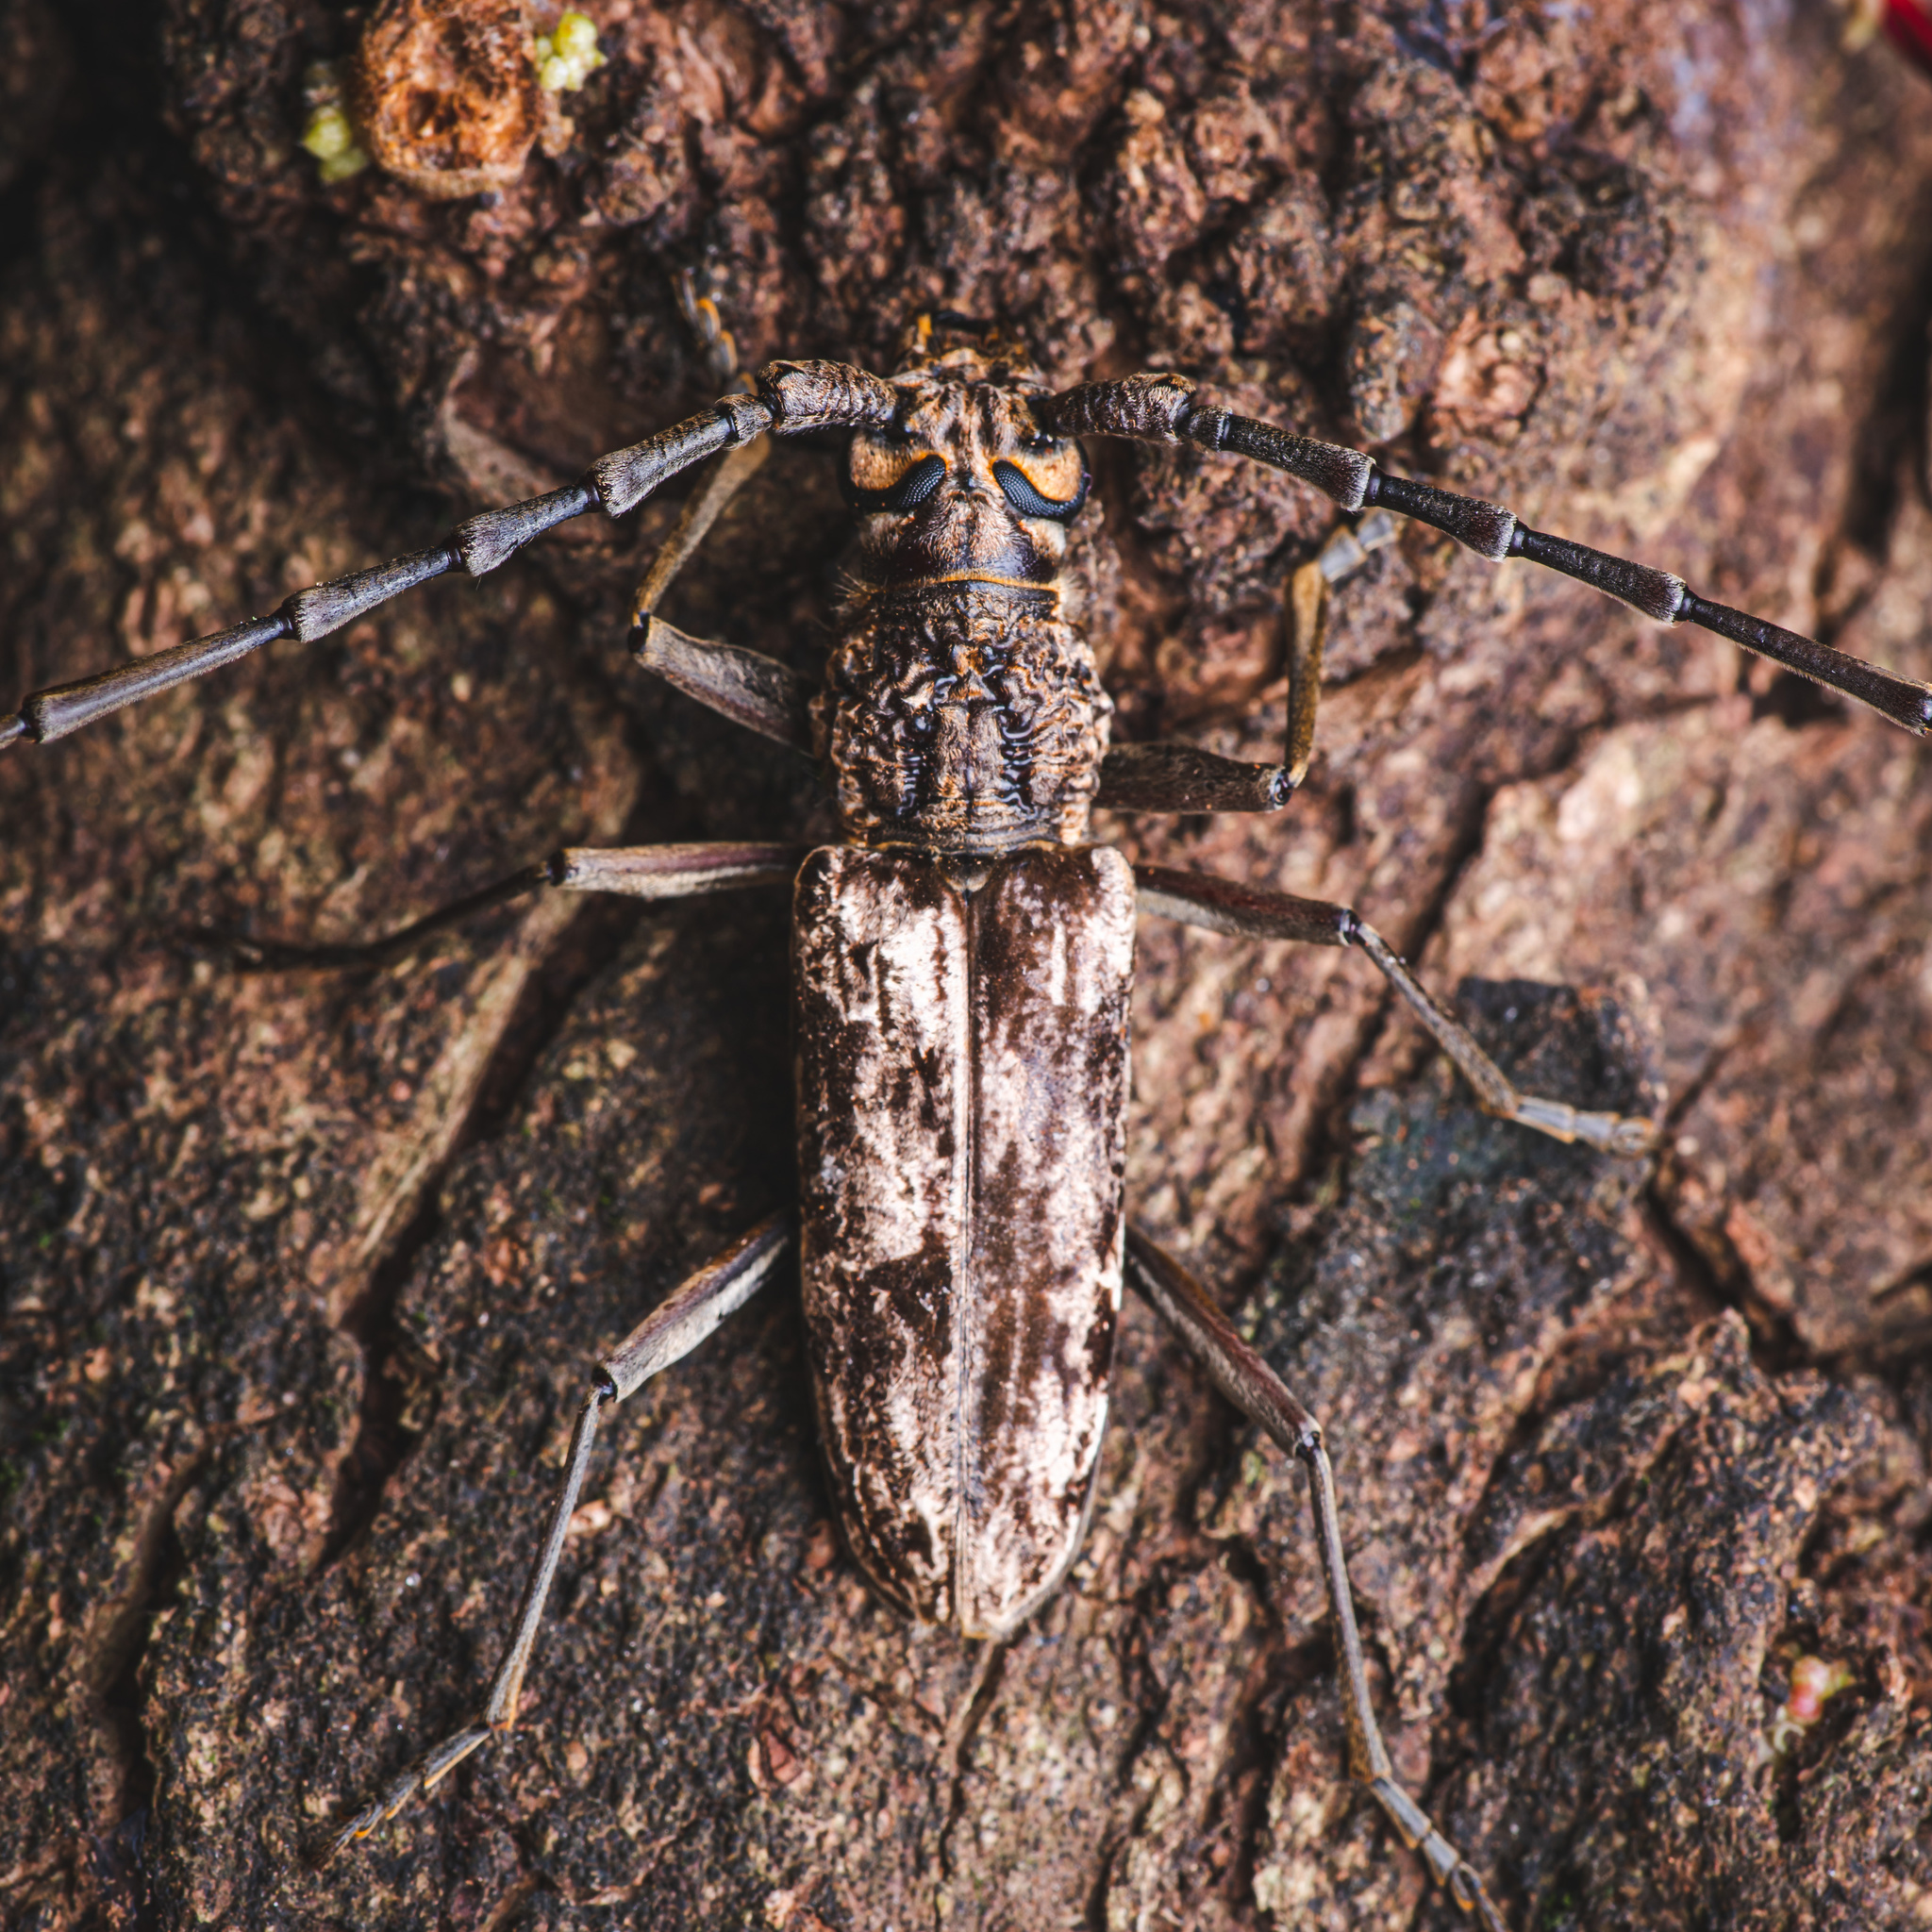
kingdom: Animalia
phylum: Arthropoda
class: Insecta
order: Coleoptera
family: Cerambycidae
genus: Aeolesthes
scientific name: Aeolesthes induta
